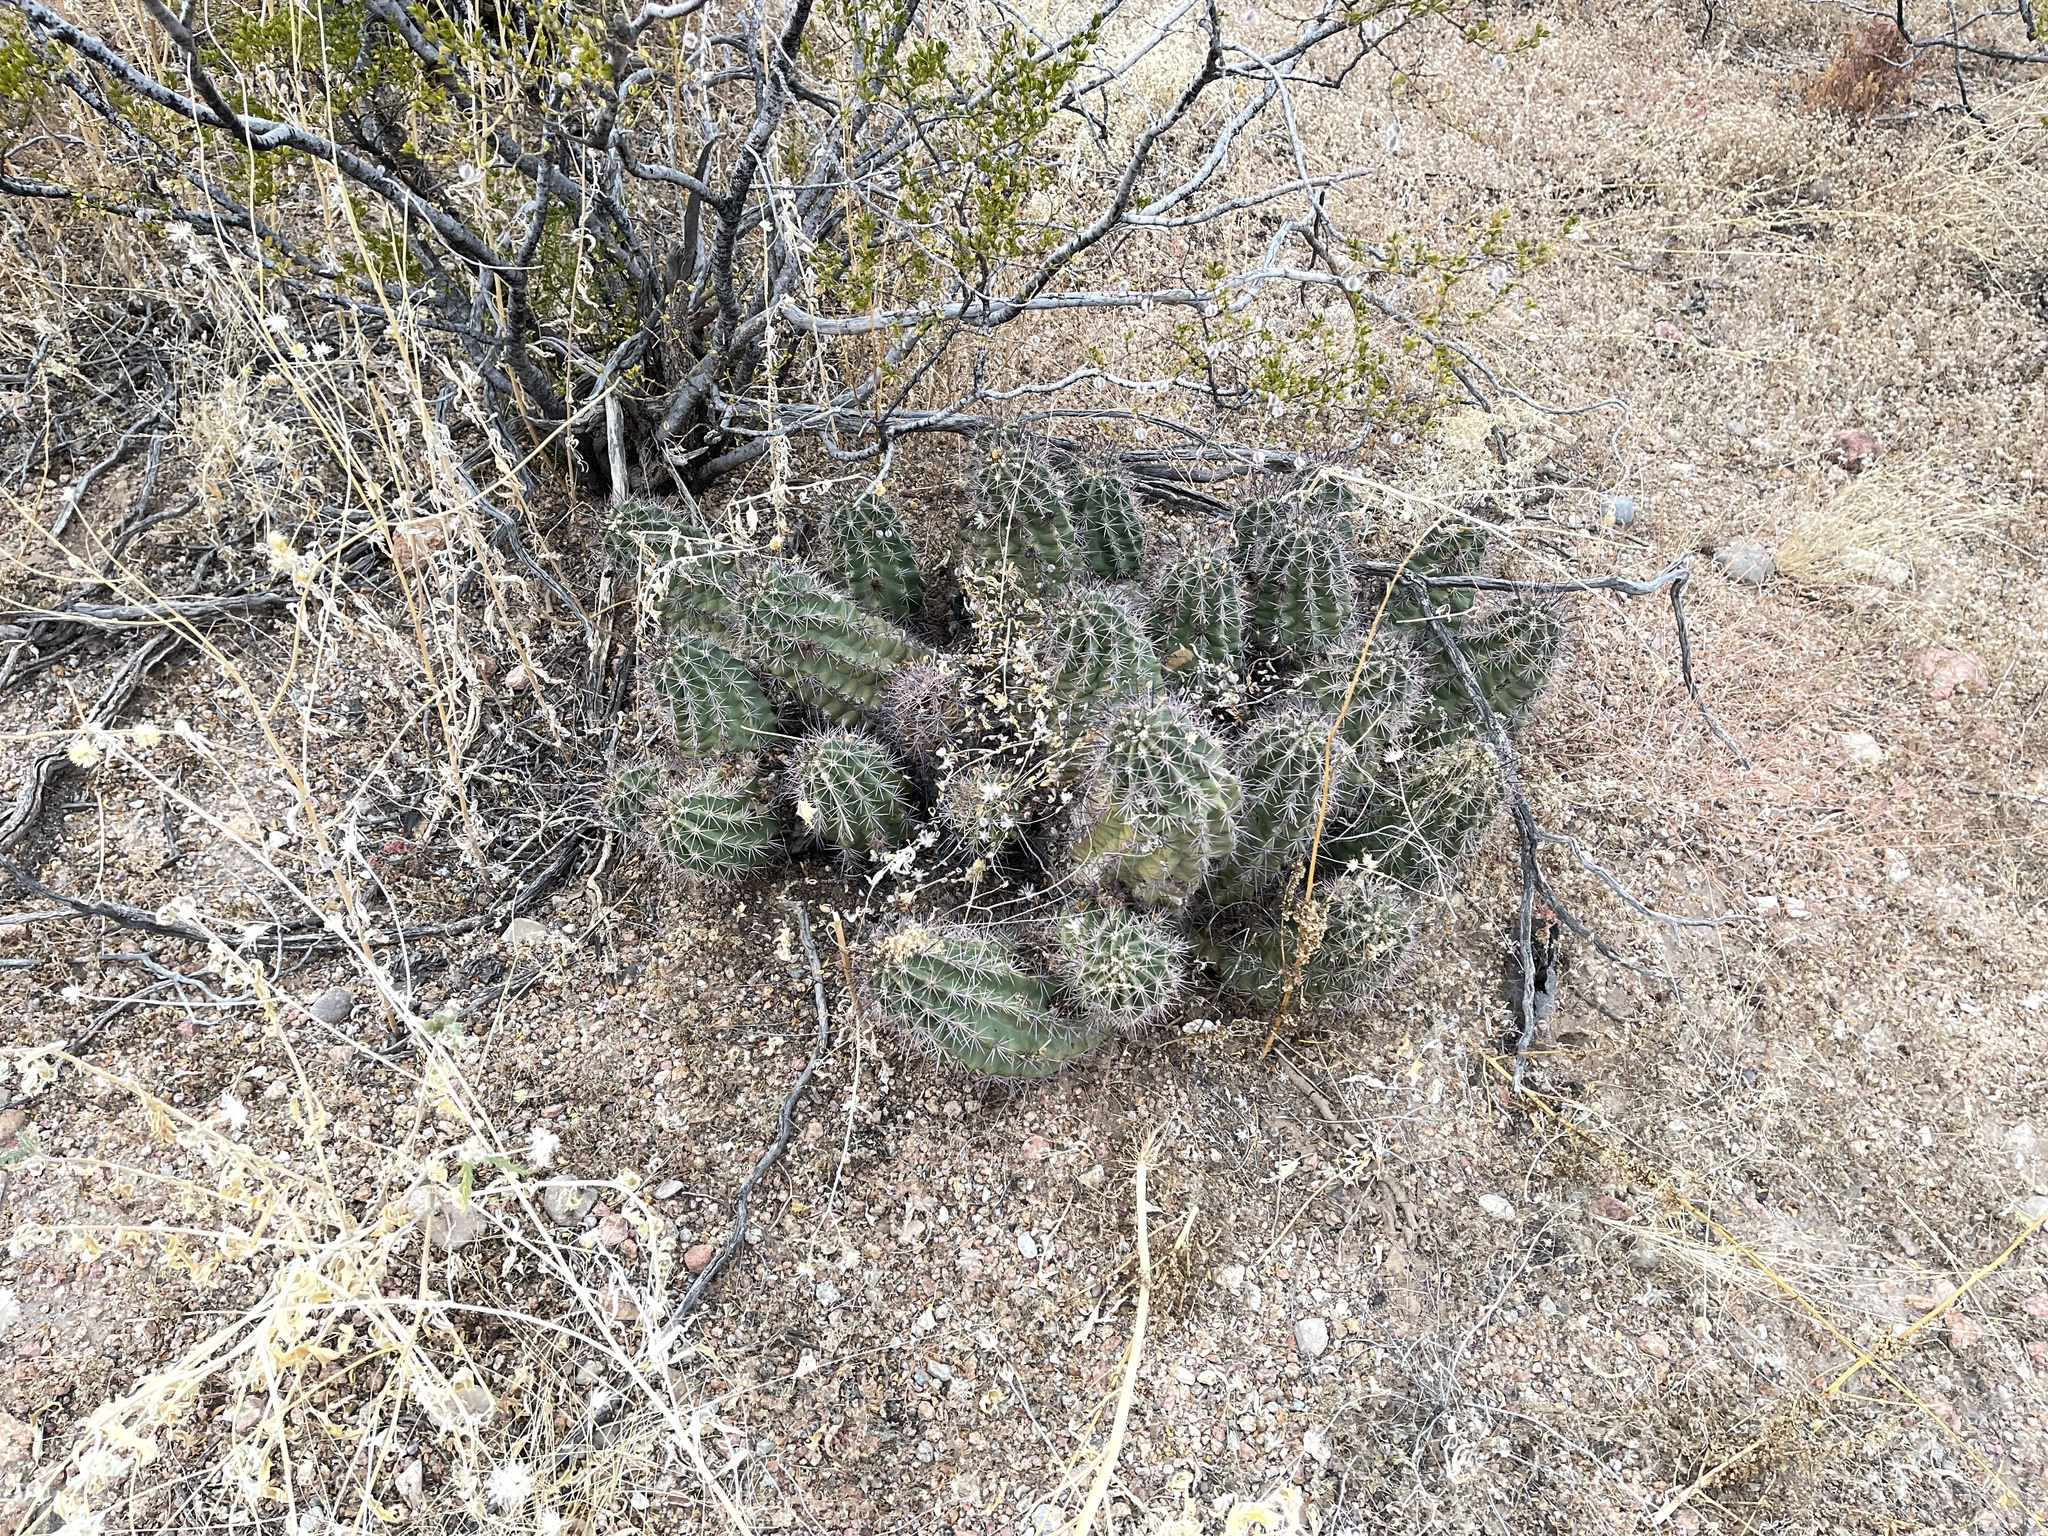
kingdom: Plantae
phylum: Tracheophyta
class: Magnoliopsida
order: Caryophyllales
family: Cactaceae
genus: Echinocereus
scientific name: Echinocereus coccineus
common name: Scarlet hedgehog cactus
